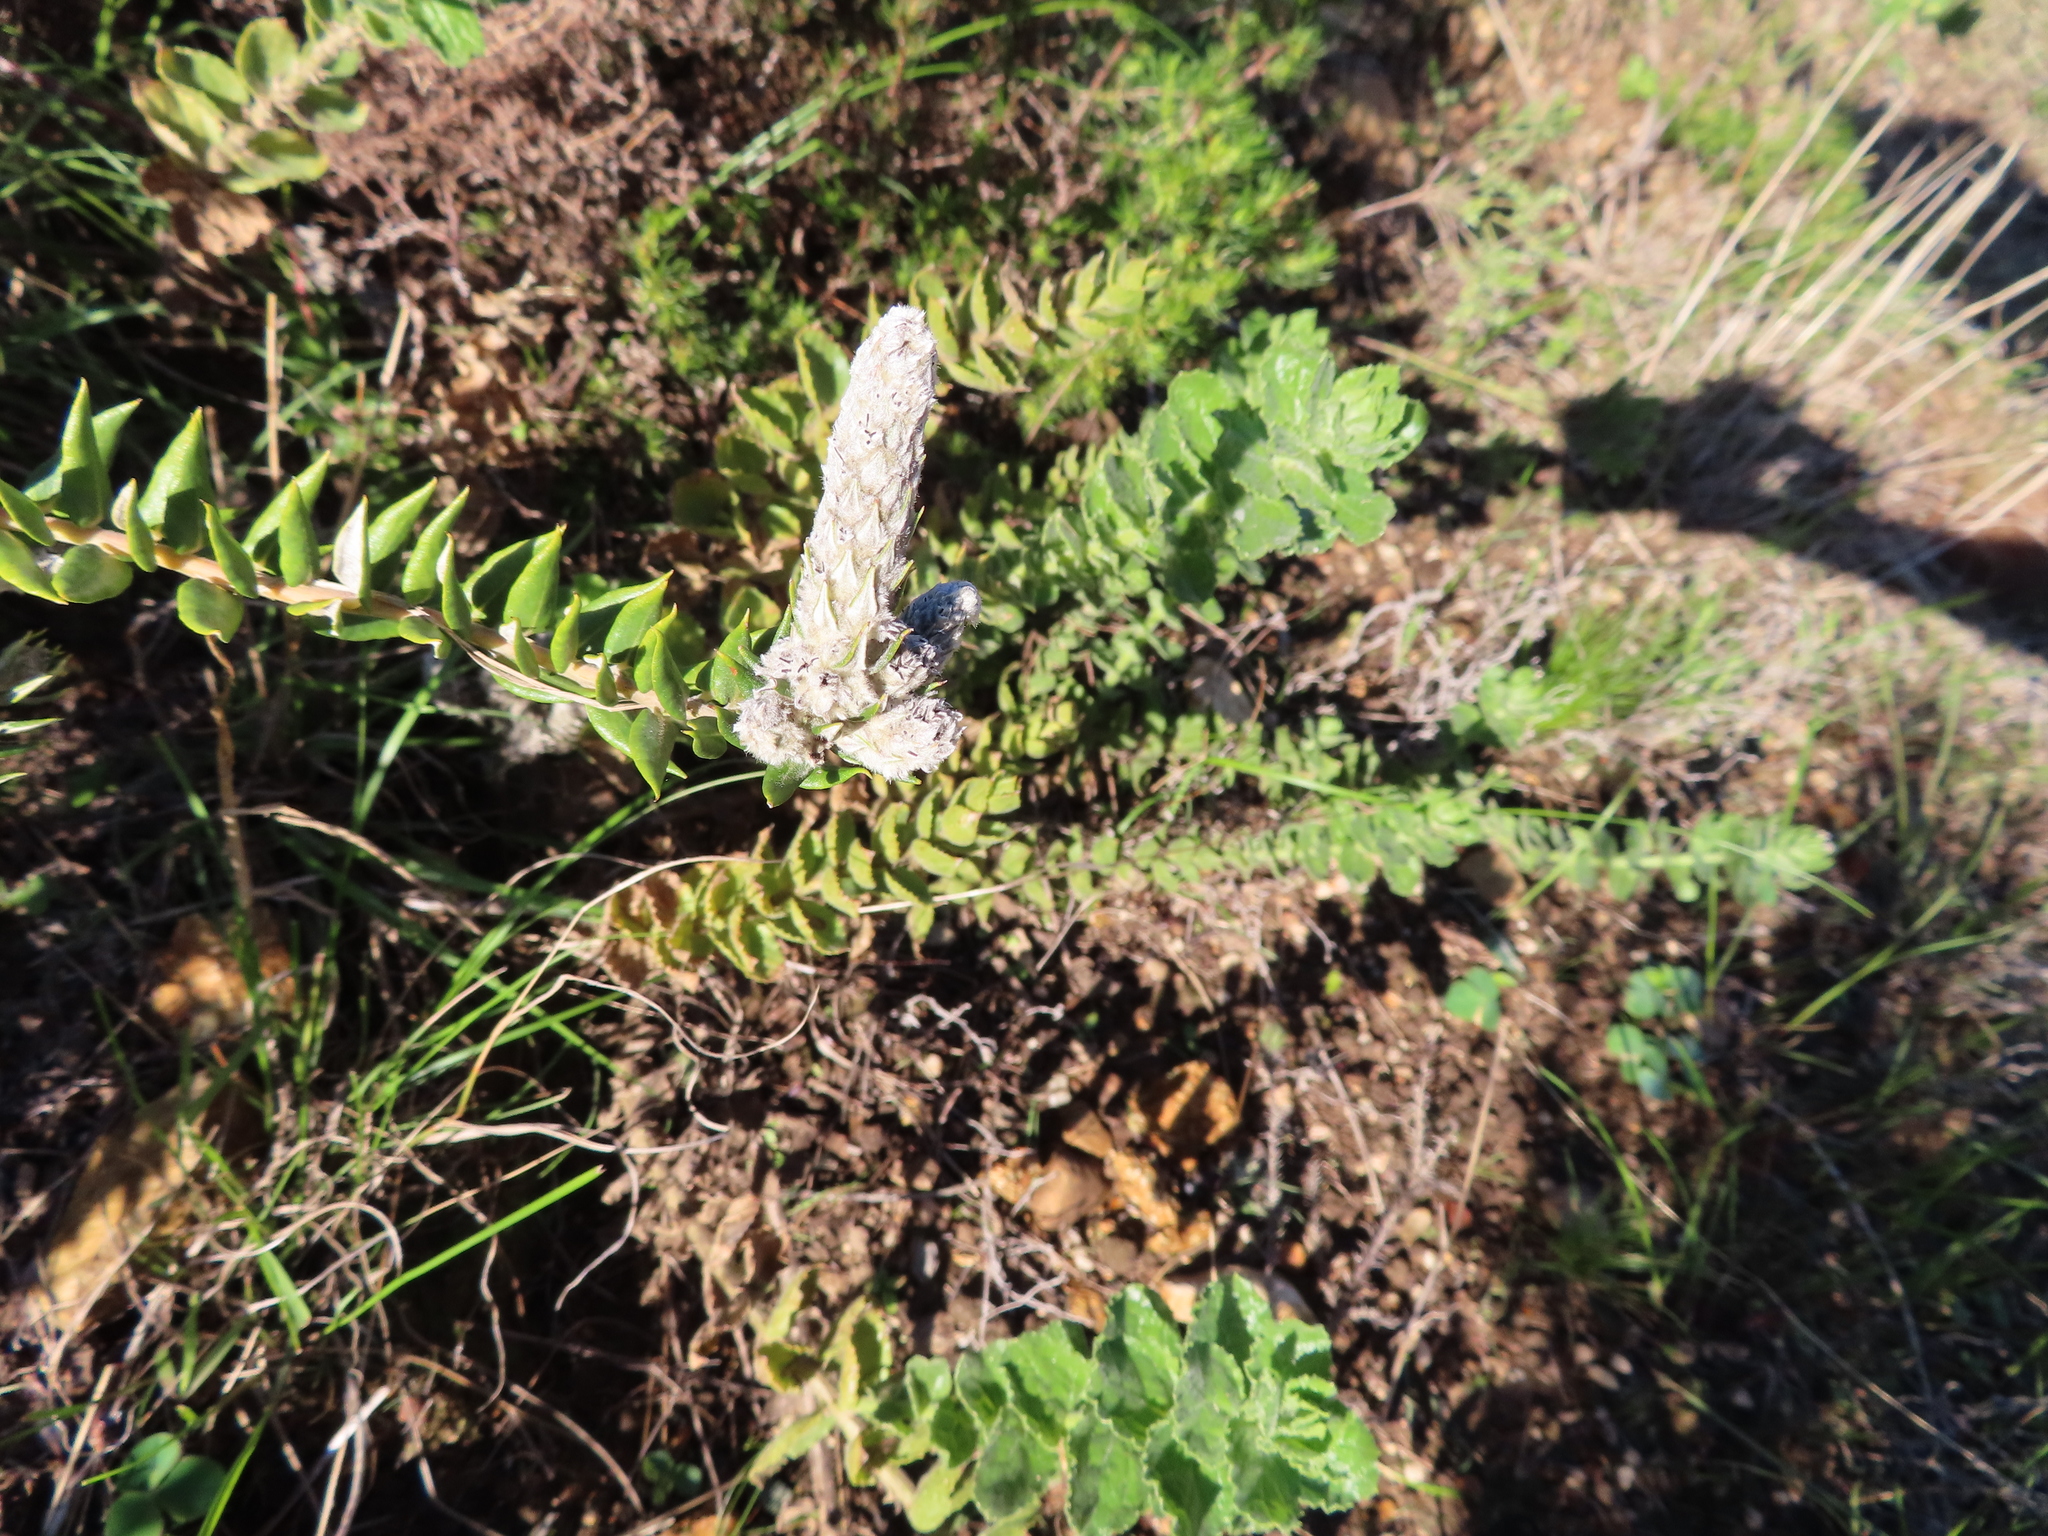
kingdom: Plantae
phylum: Tracheophyta
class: Magnoliopsida
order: Rosales
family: Rhamnaceae
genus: Phylica
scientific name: Phylica spicata
